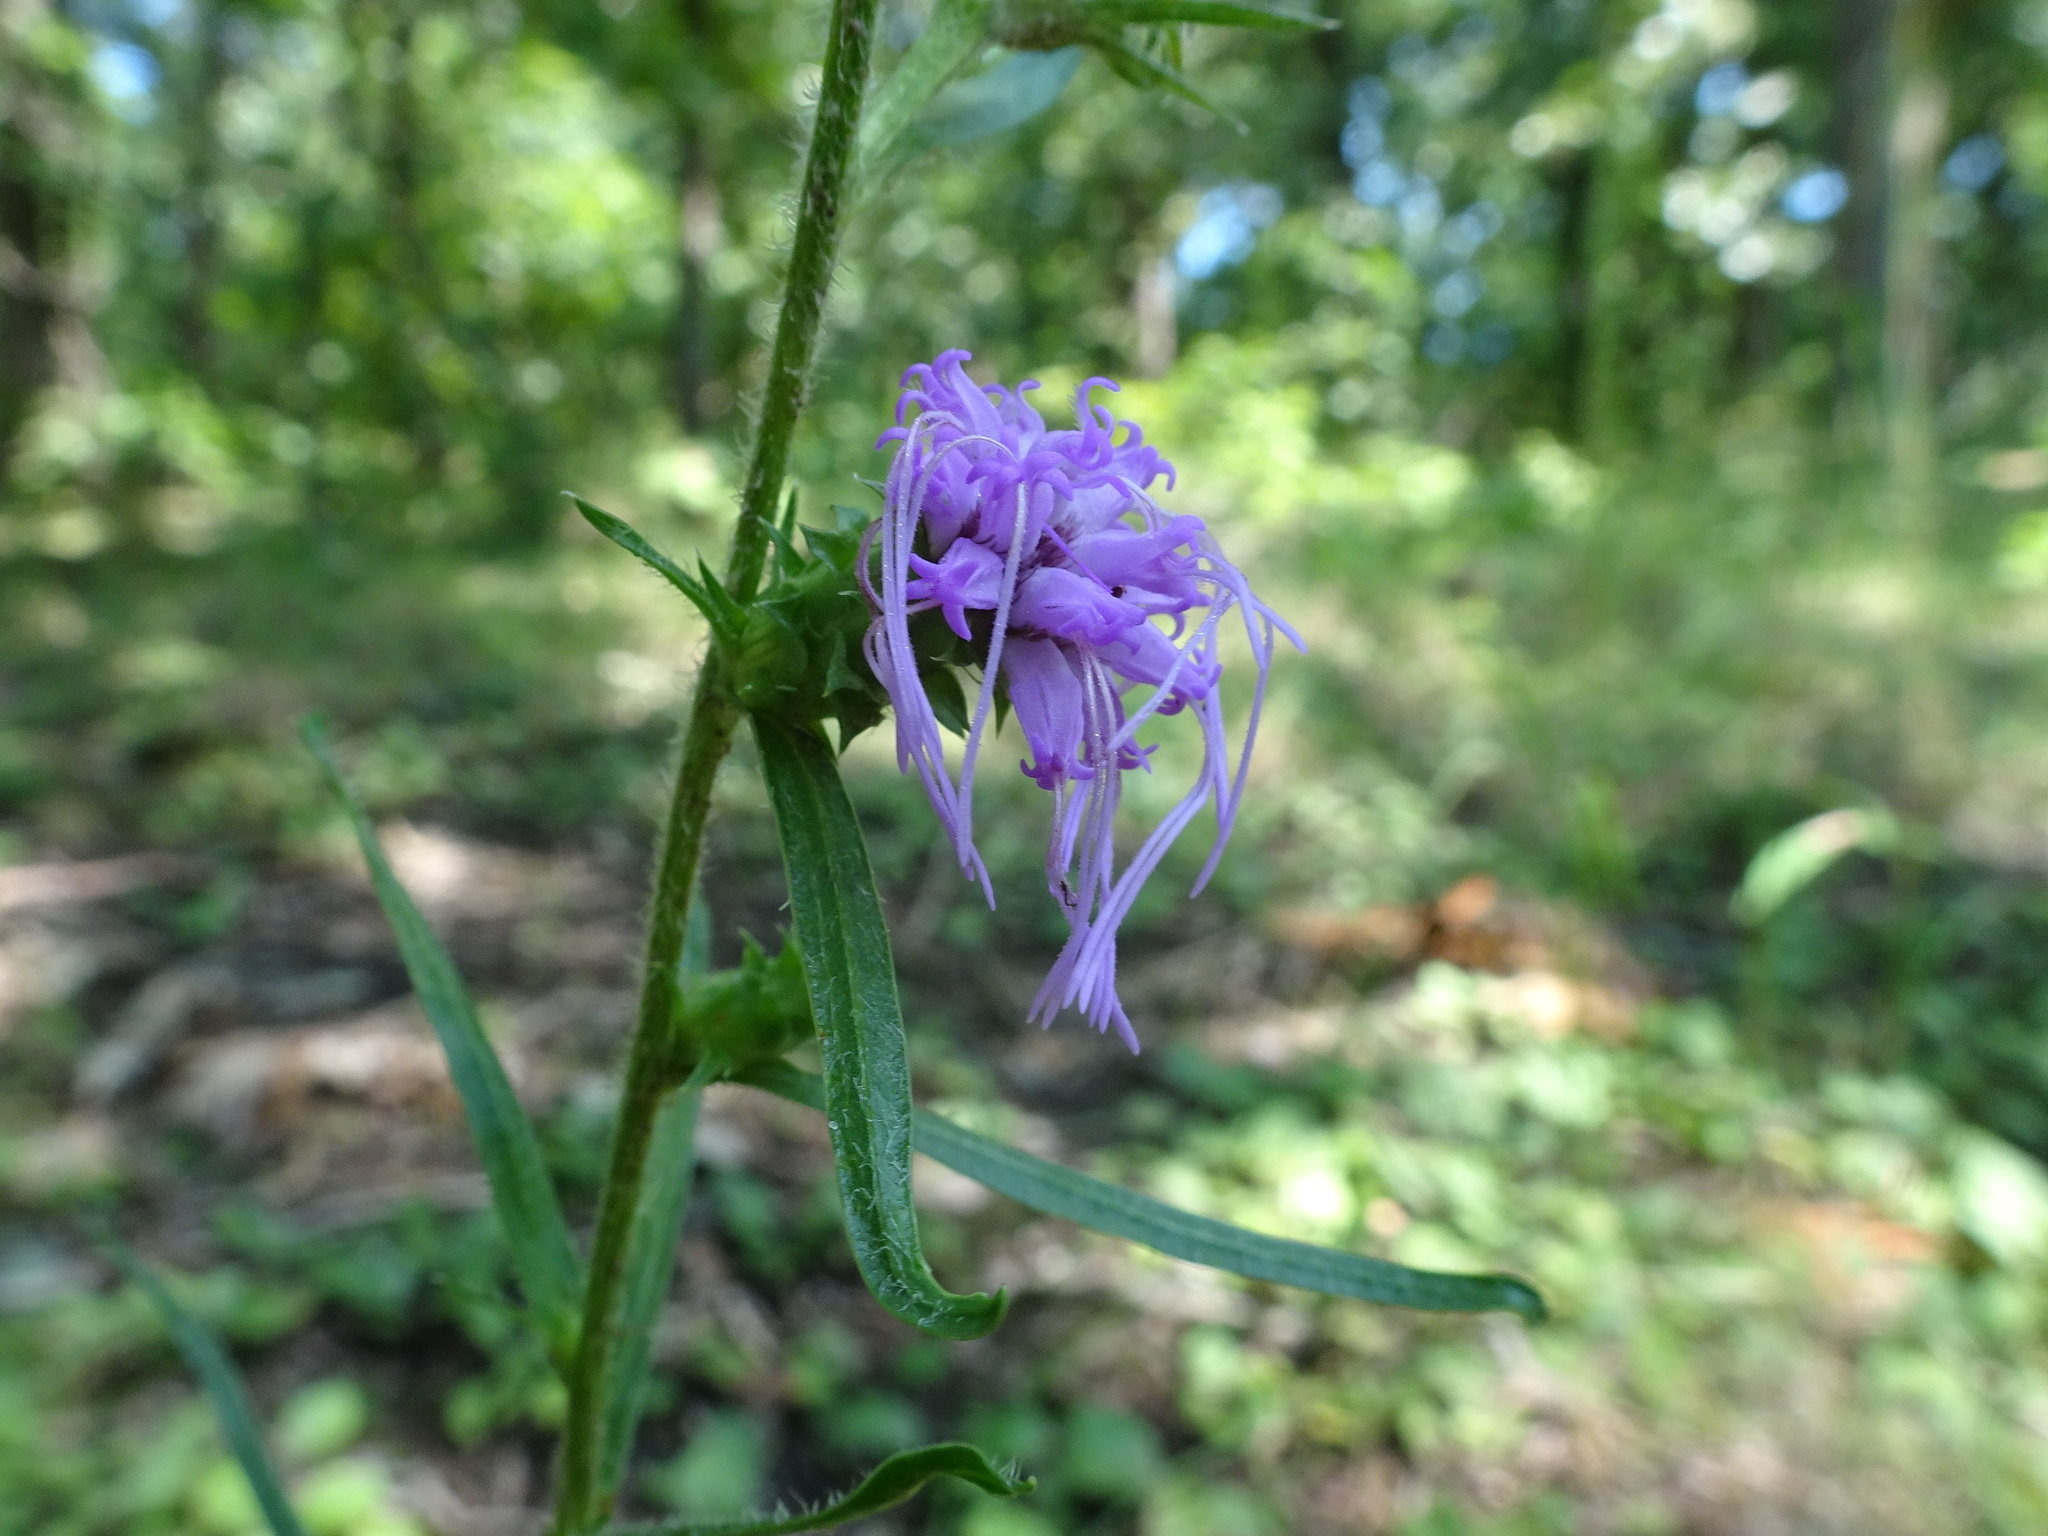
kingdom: Plantae
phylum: Tracheophyta
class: Magnoliopsida
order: Asterales
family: Asteraceae
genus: Liatris
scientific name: Liatris hirsuta
